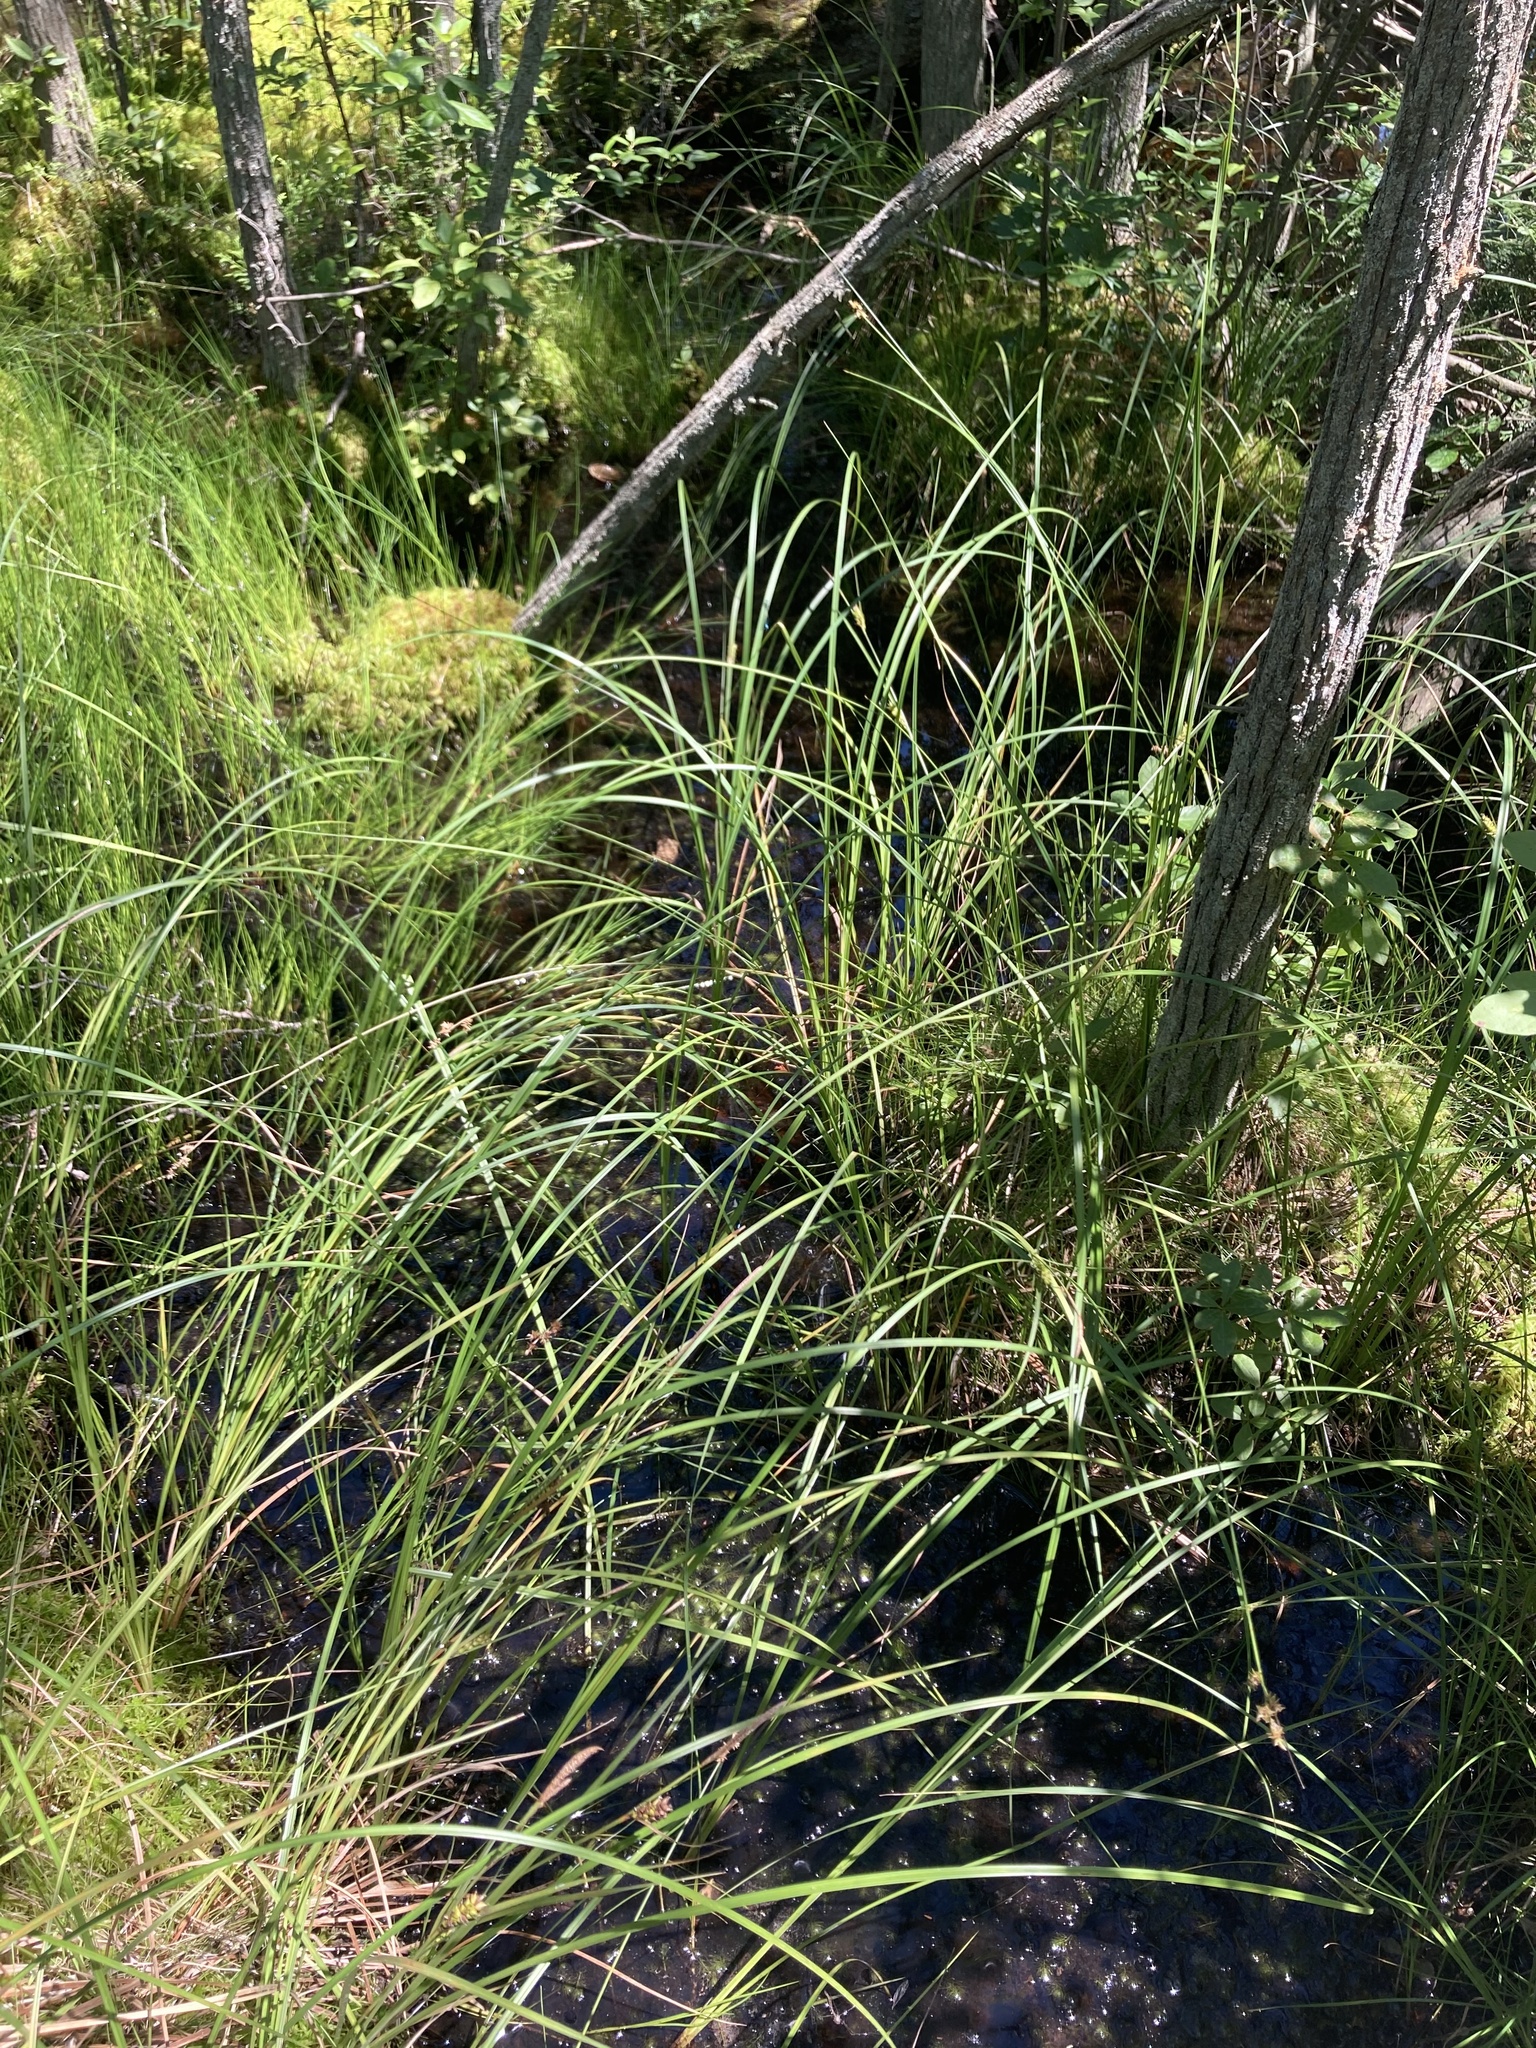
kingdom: Plantae
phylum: Tracheophyta
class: Liliopsida
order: Poales
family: Cyperaceae
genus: Carex
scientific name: Carex striata
